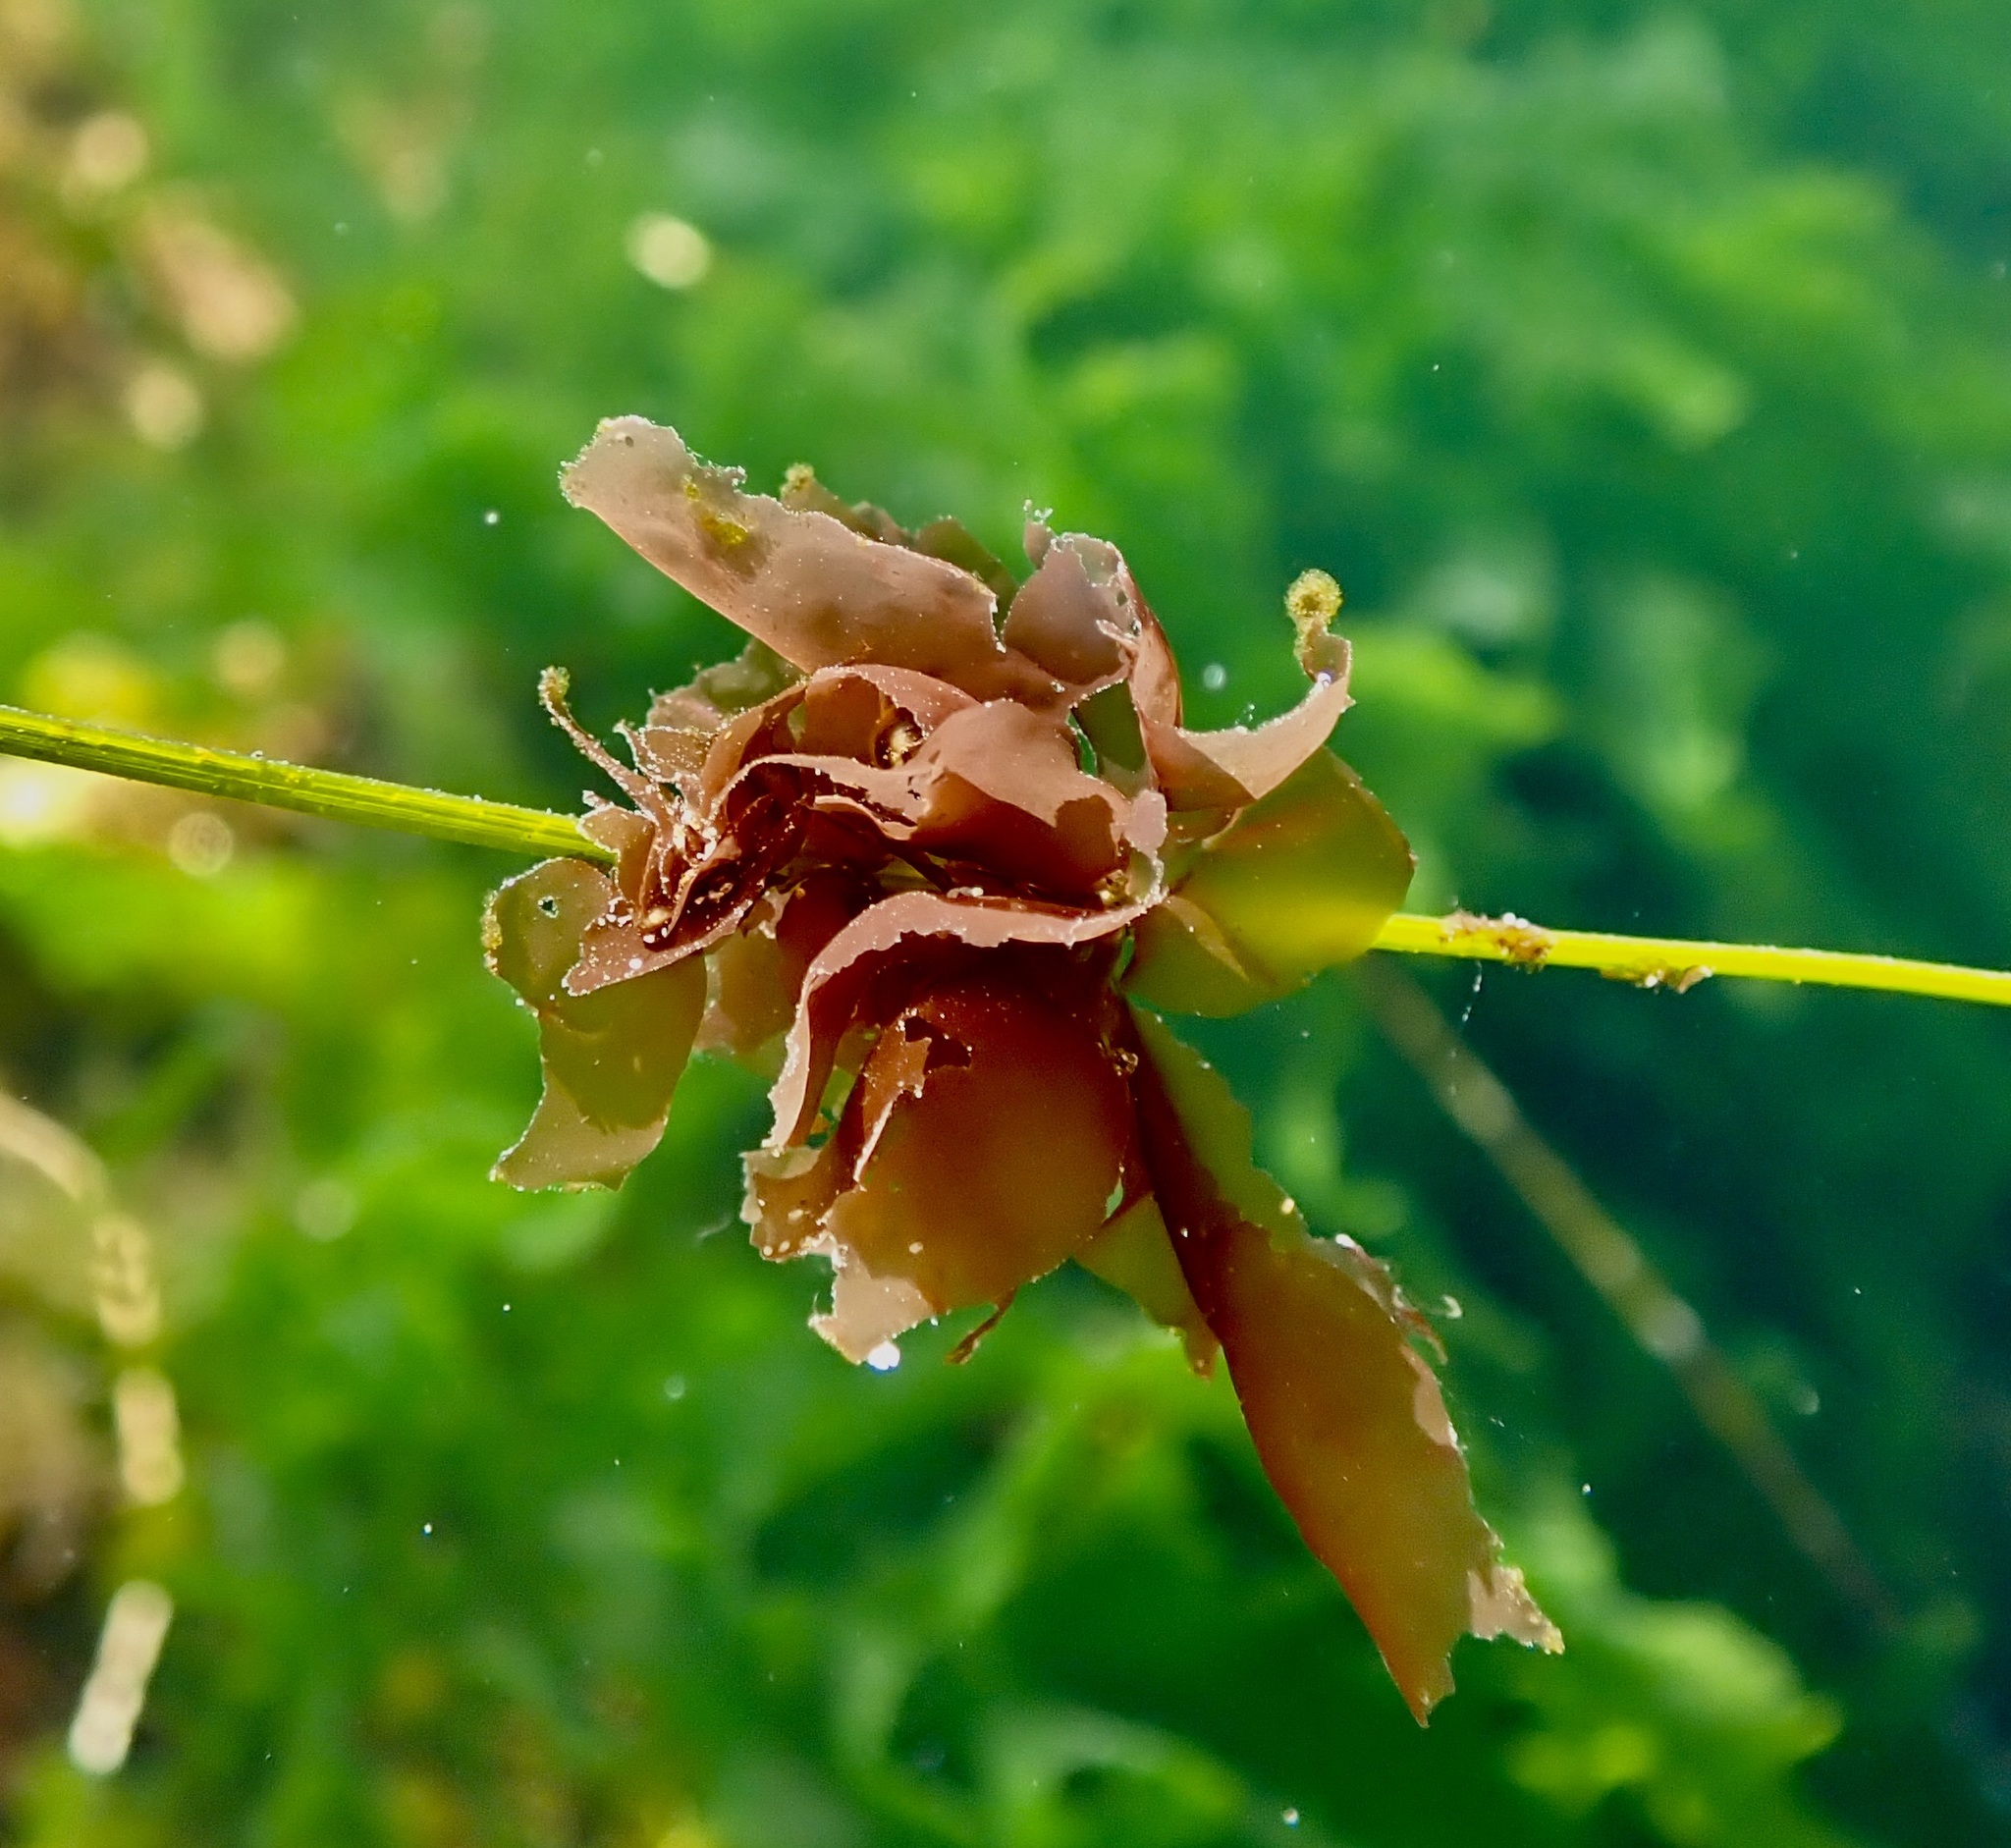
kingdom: Plantae
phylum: Rhodophyta
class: Compsopogonophyceae
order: Erythropeltidales
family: Erythrotrichiaceae
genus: Smithora
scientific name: Smithora naiadum
